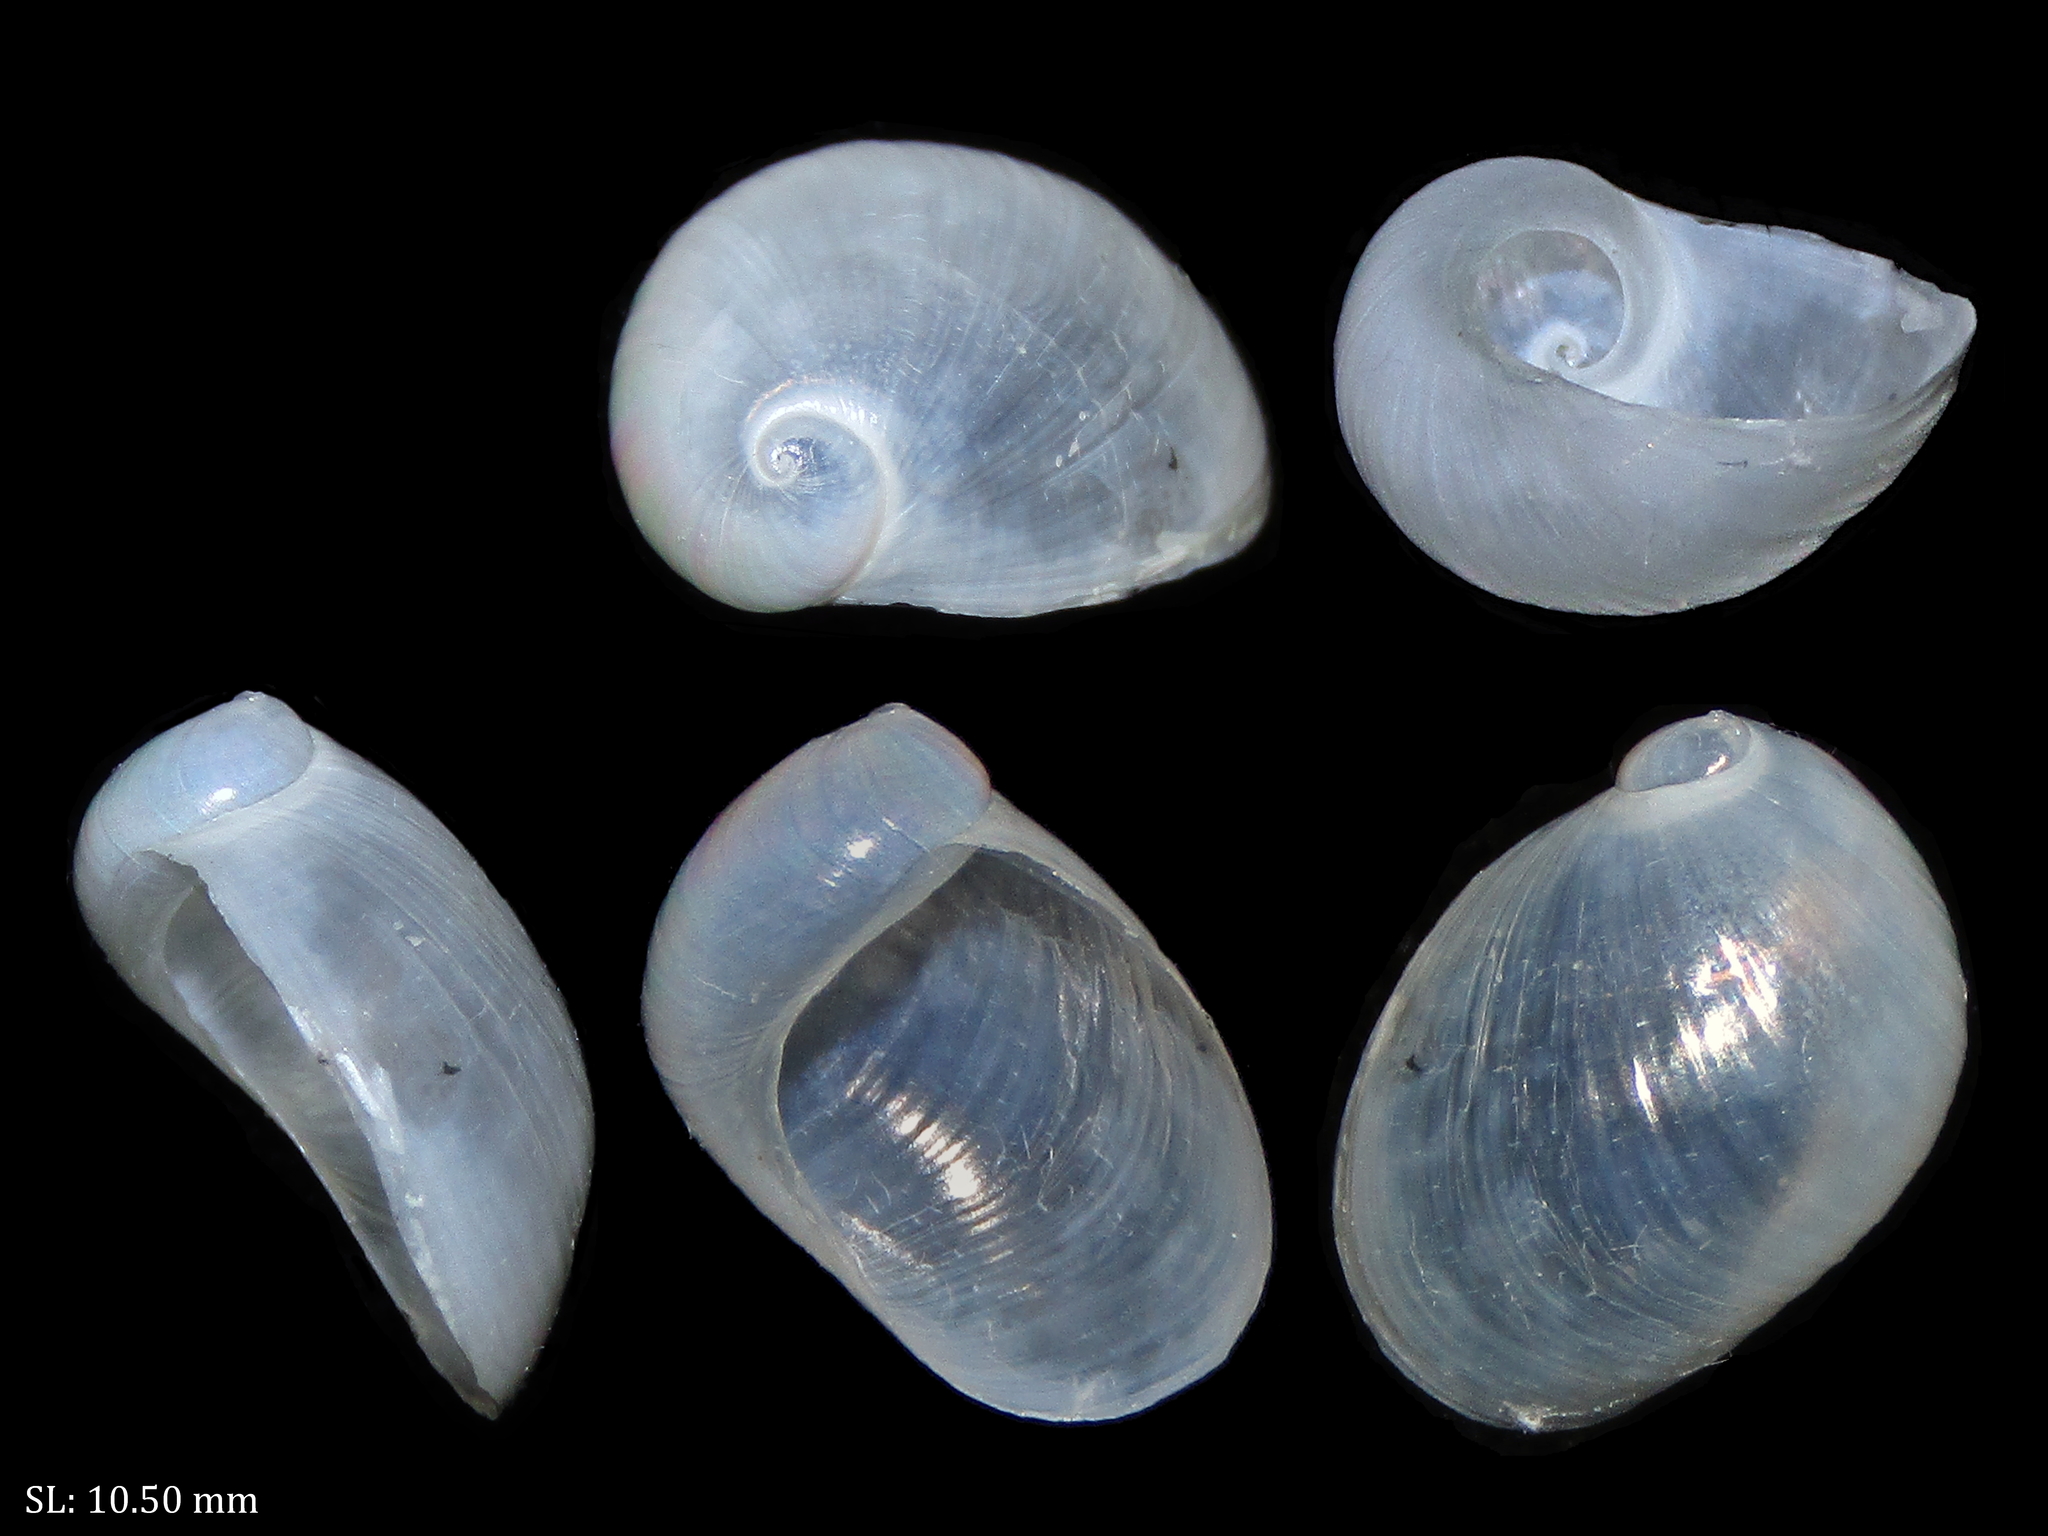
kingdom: Animalia
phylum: Mollusca
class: Gastropoda
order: Littorinimorpha
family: Velutinidae
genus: Lamellaria
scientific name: Lamellaria ophione
